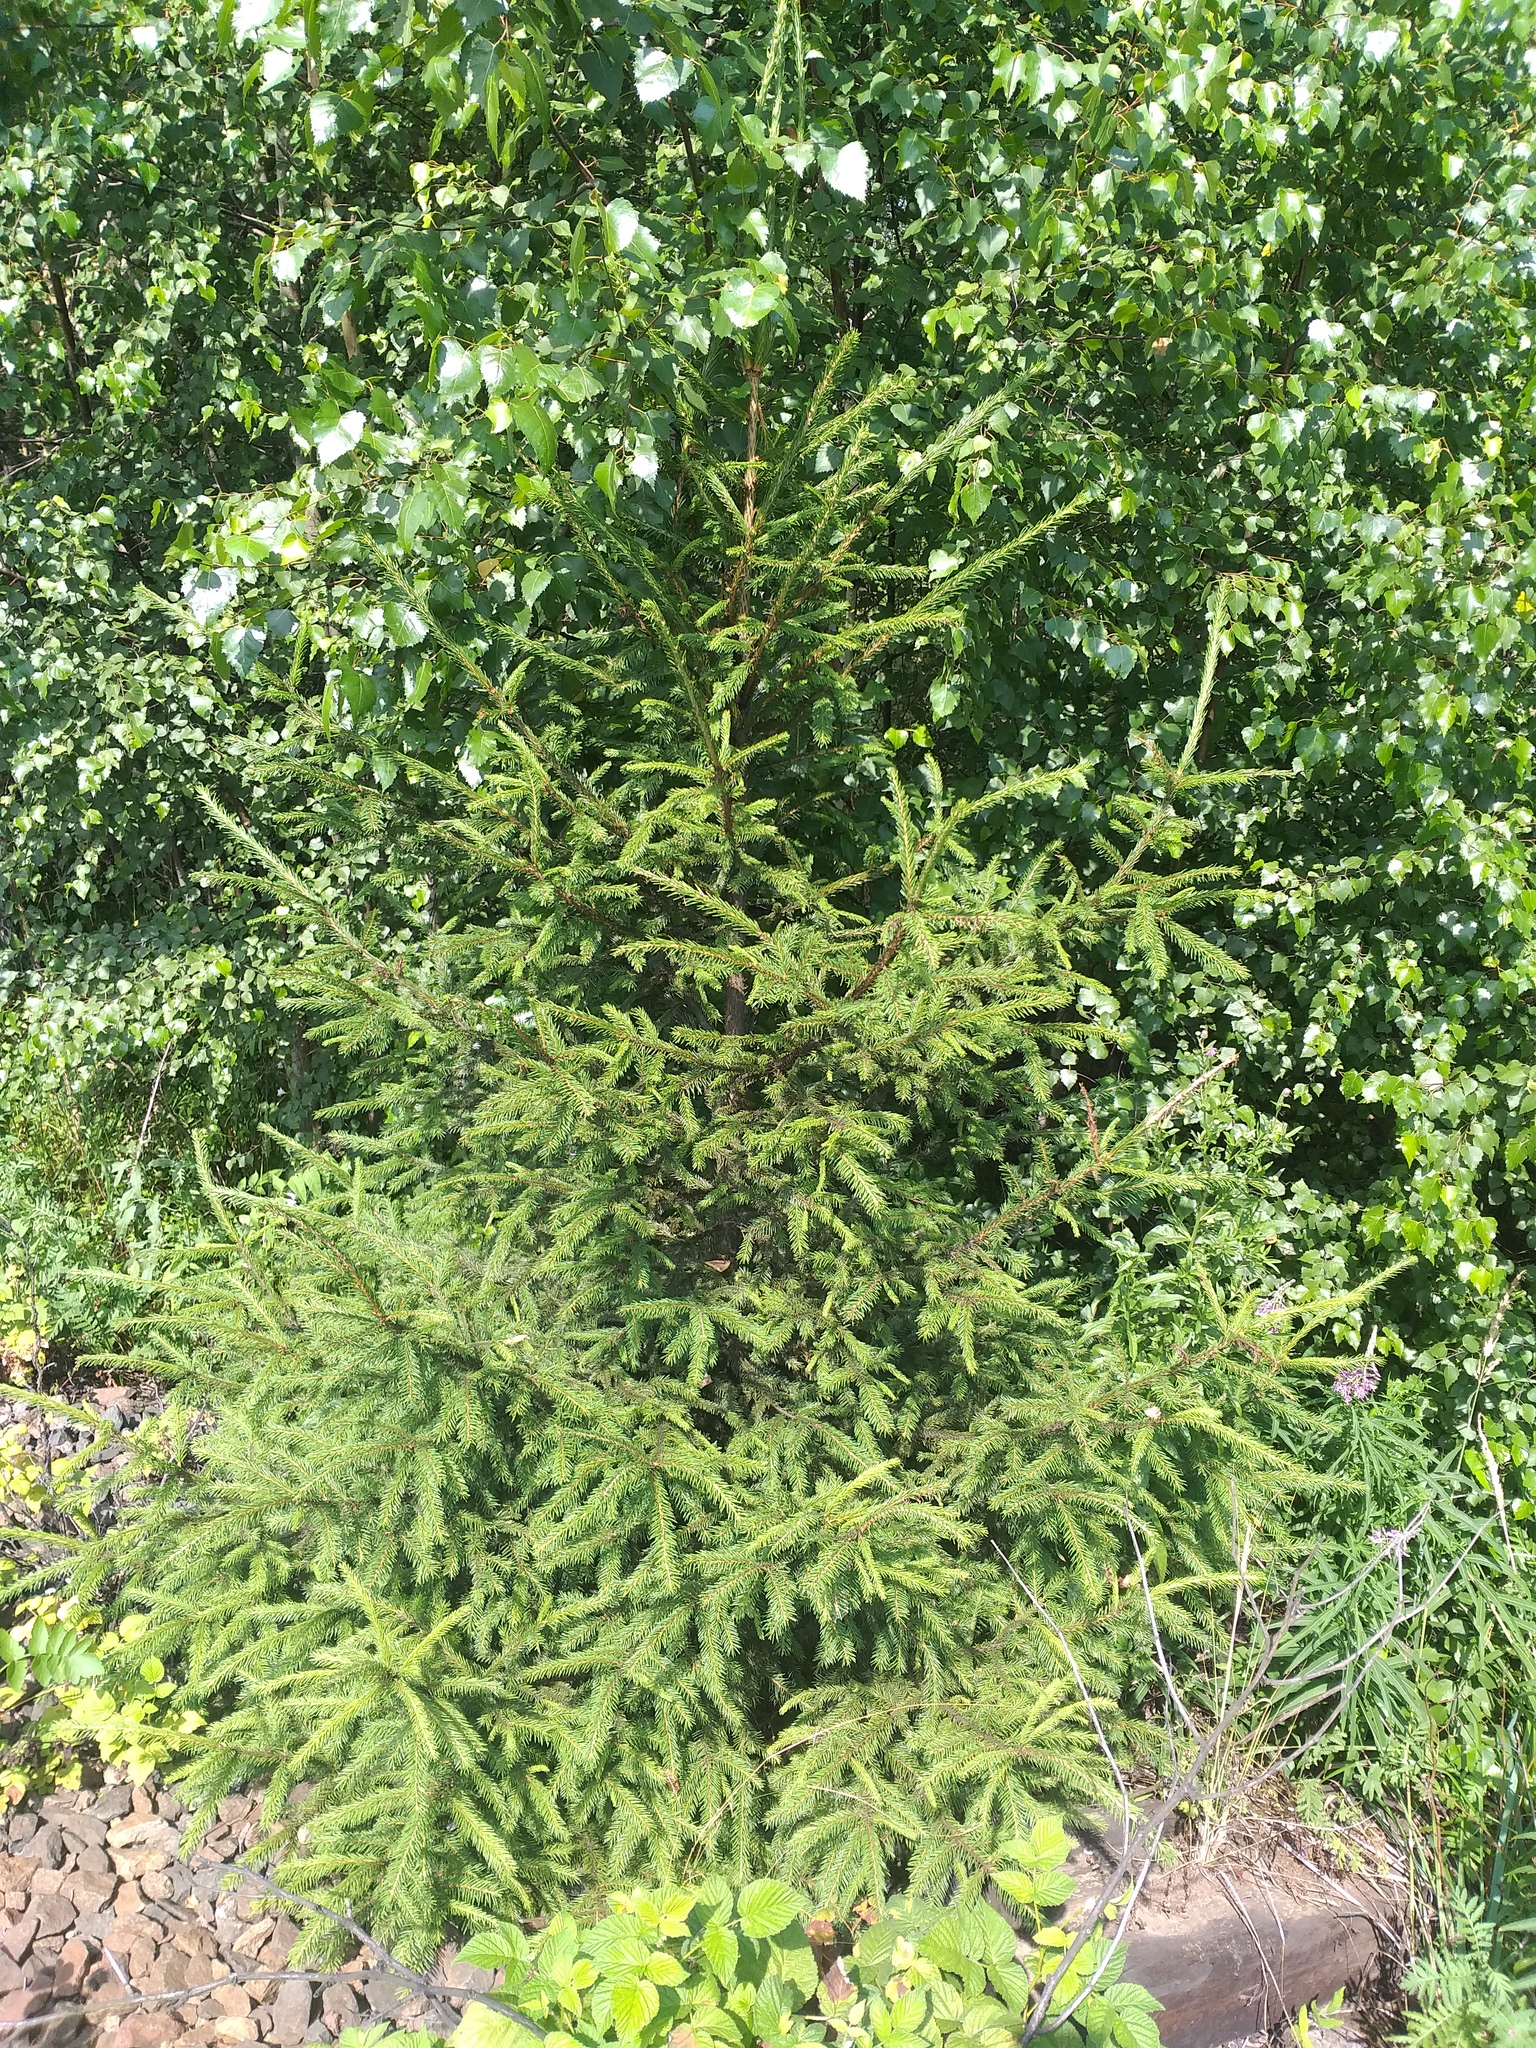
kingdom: Plantae
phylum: Tracheophyta
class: Pinopsida
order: Pinales
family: Pinaceae
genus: Picea
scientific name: Picea abies
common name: Norway spruce
